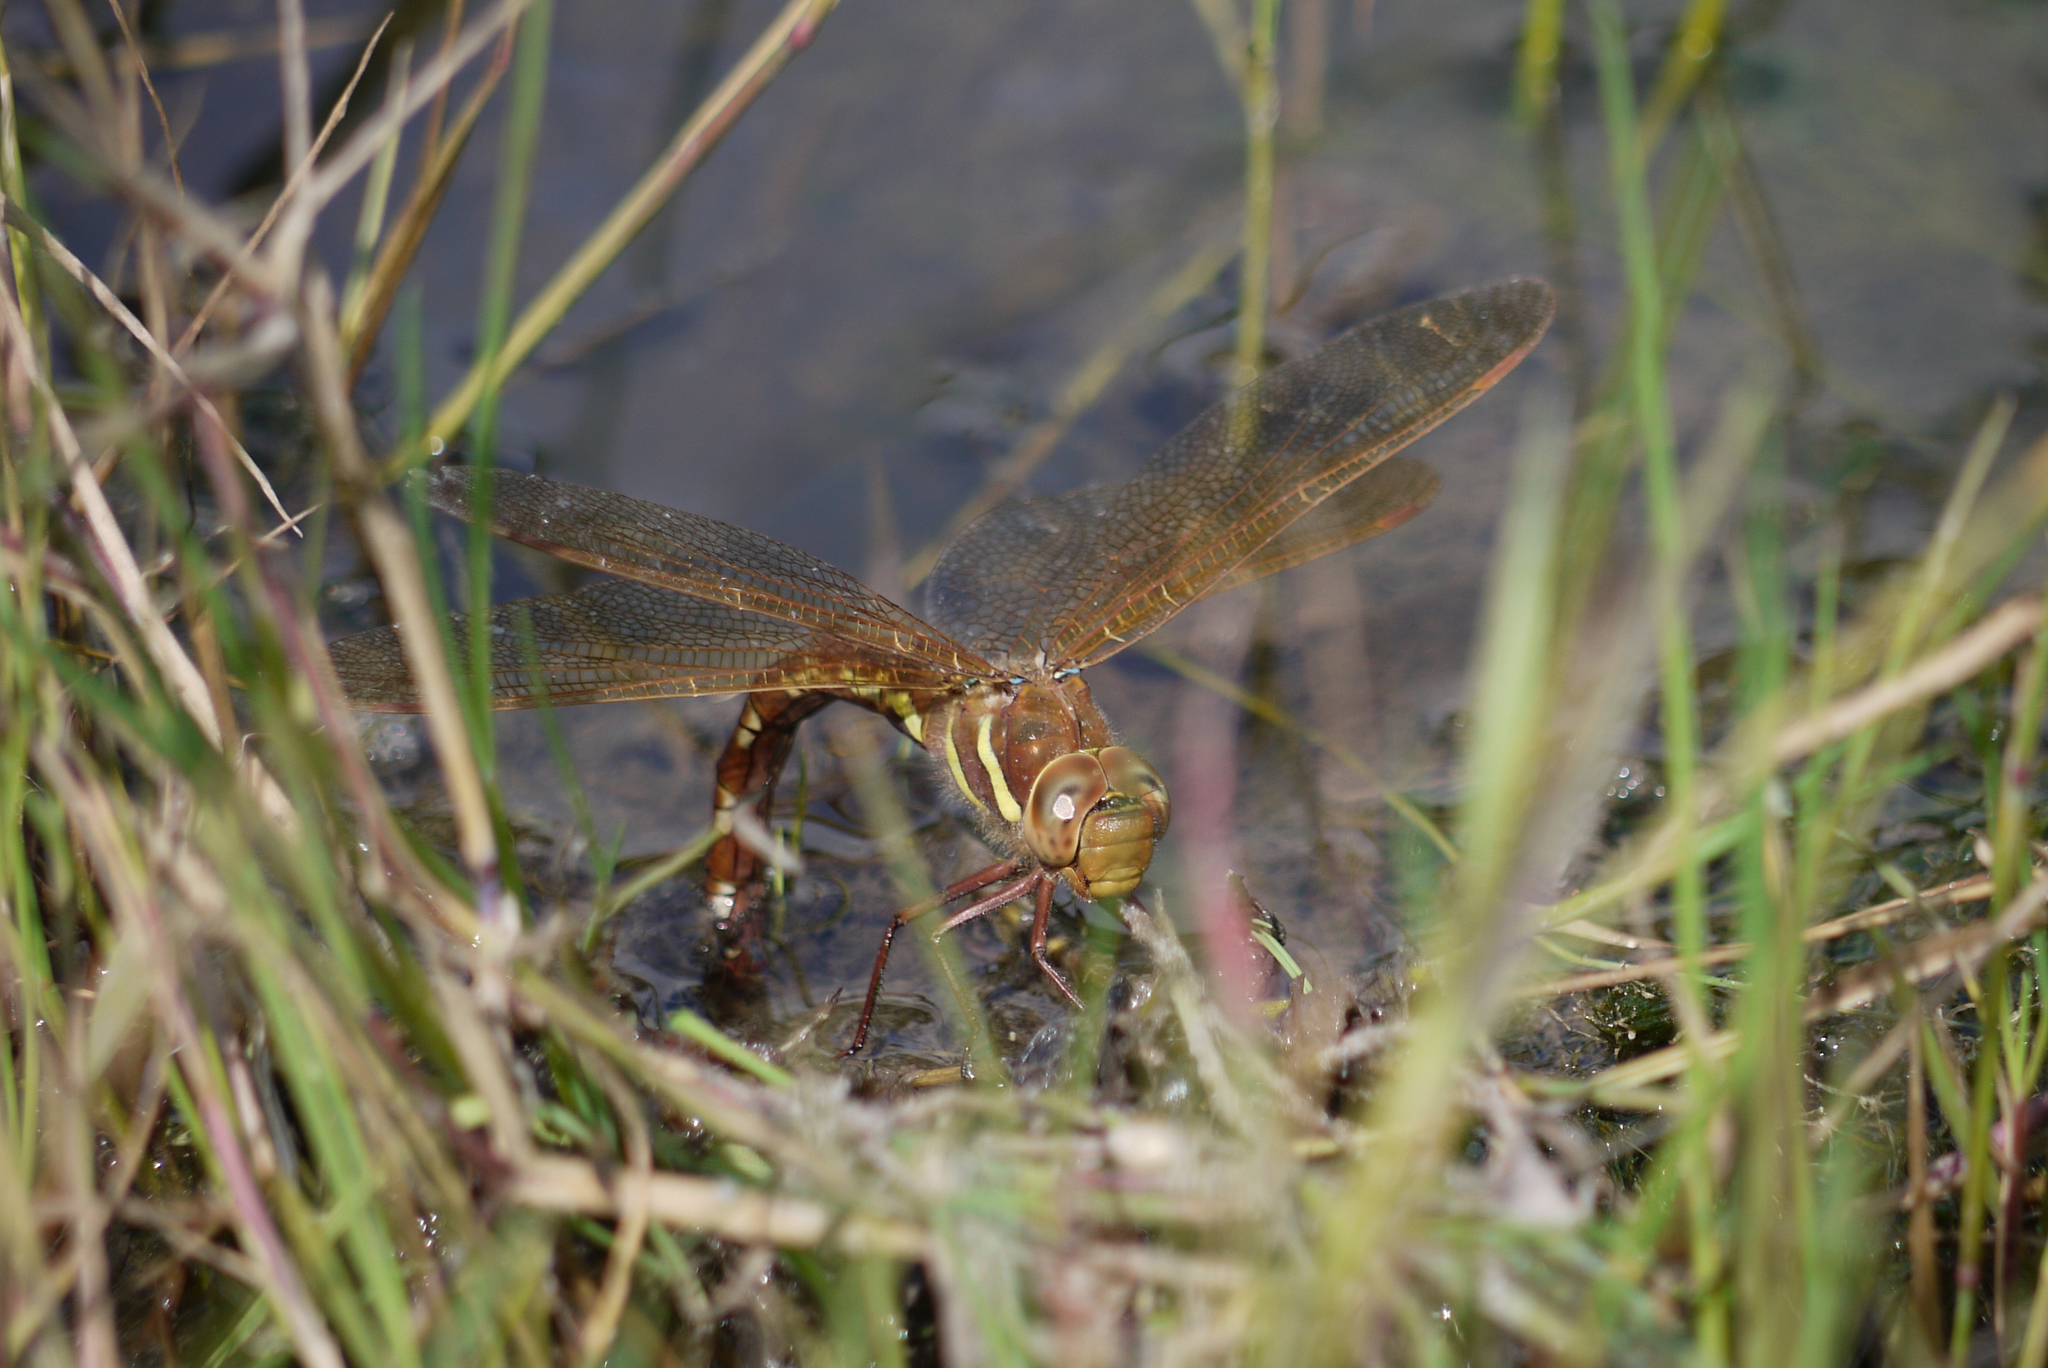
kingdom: Animalia
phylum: Arthropoda
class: Insecta
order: Odonata
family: Aeshnidae
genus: Aeshna
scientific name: Aeshna grandis
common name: Brown hawker
